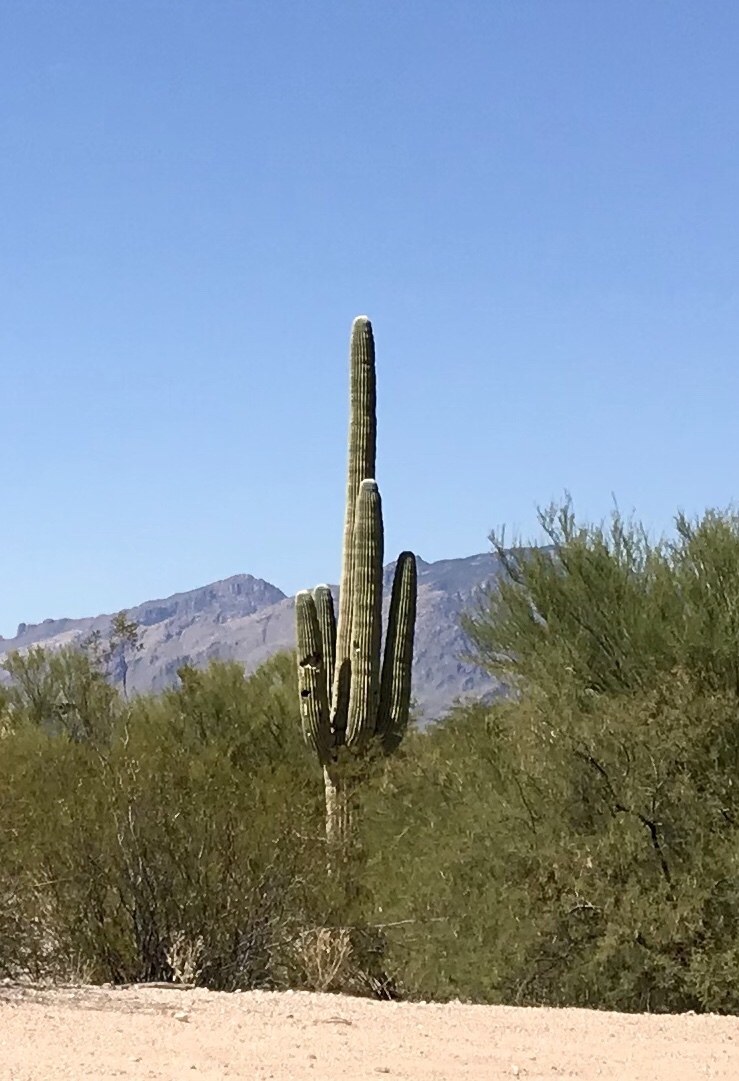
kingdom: Plantae
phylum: Tracheophyta
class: Magnoliopsida
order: Caryophyllales
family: Cactaceae
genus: Carnegiea
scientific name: Carnegiea gigantea
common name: Saguaro
